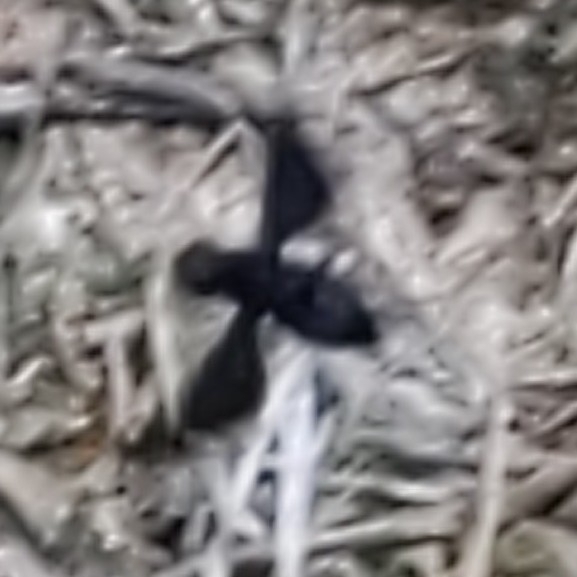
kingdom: Animalia
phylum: Arthropoda
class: Insecta
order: Diptera
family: Bombyliidae
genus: Anthrax
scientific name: Anthrax analis
